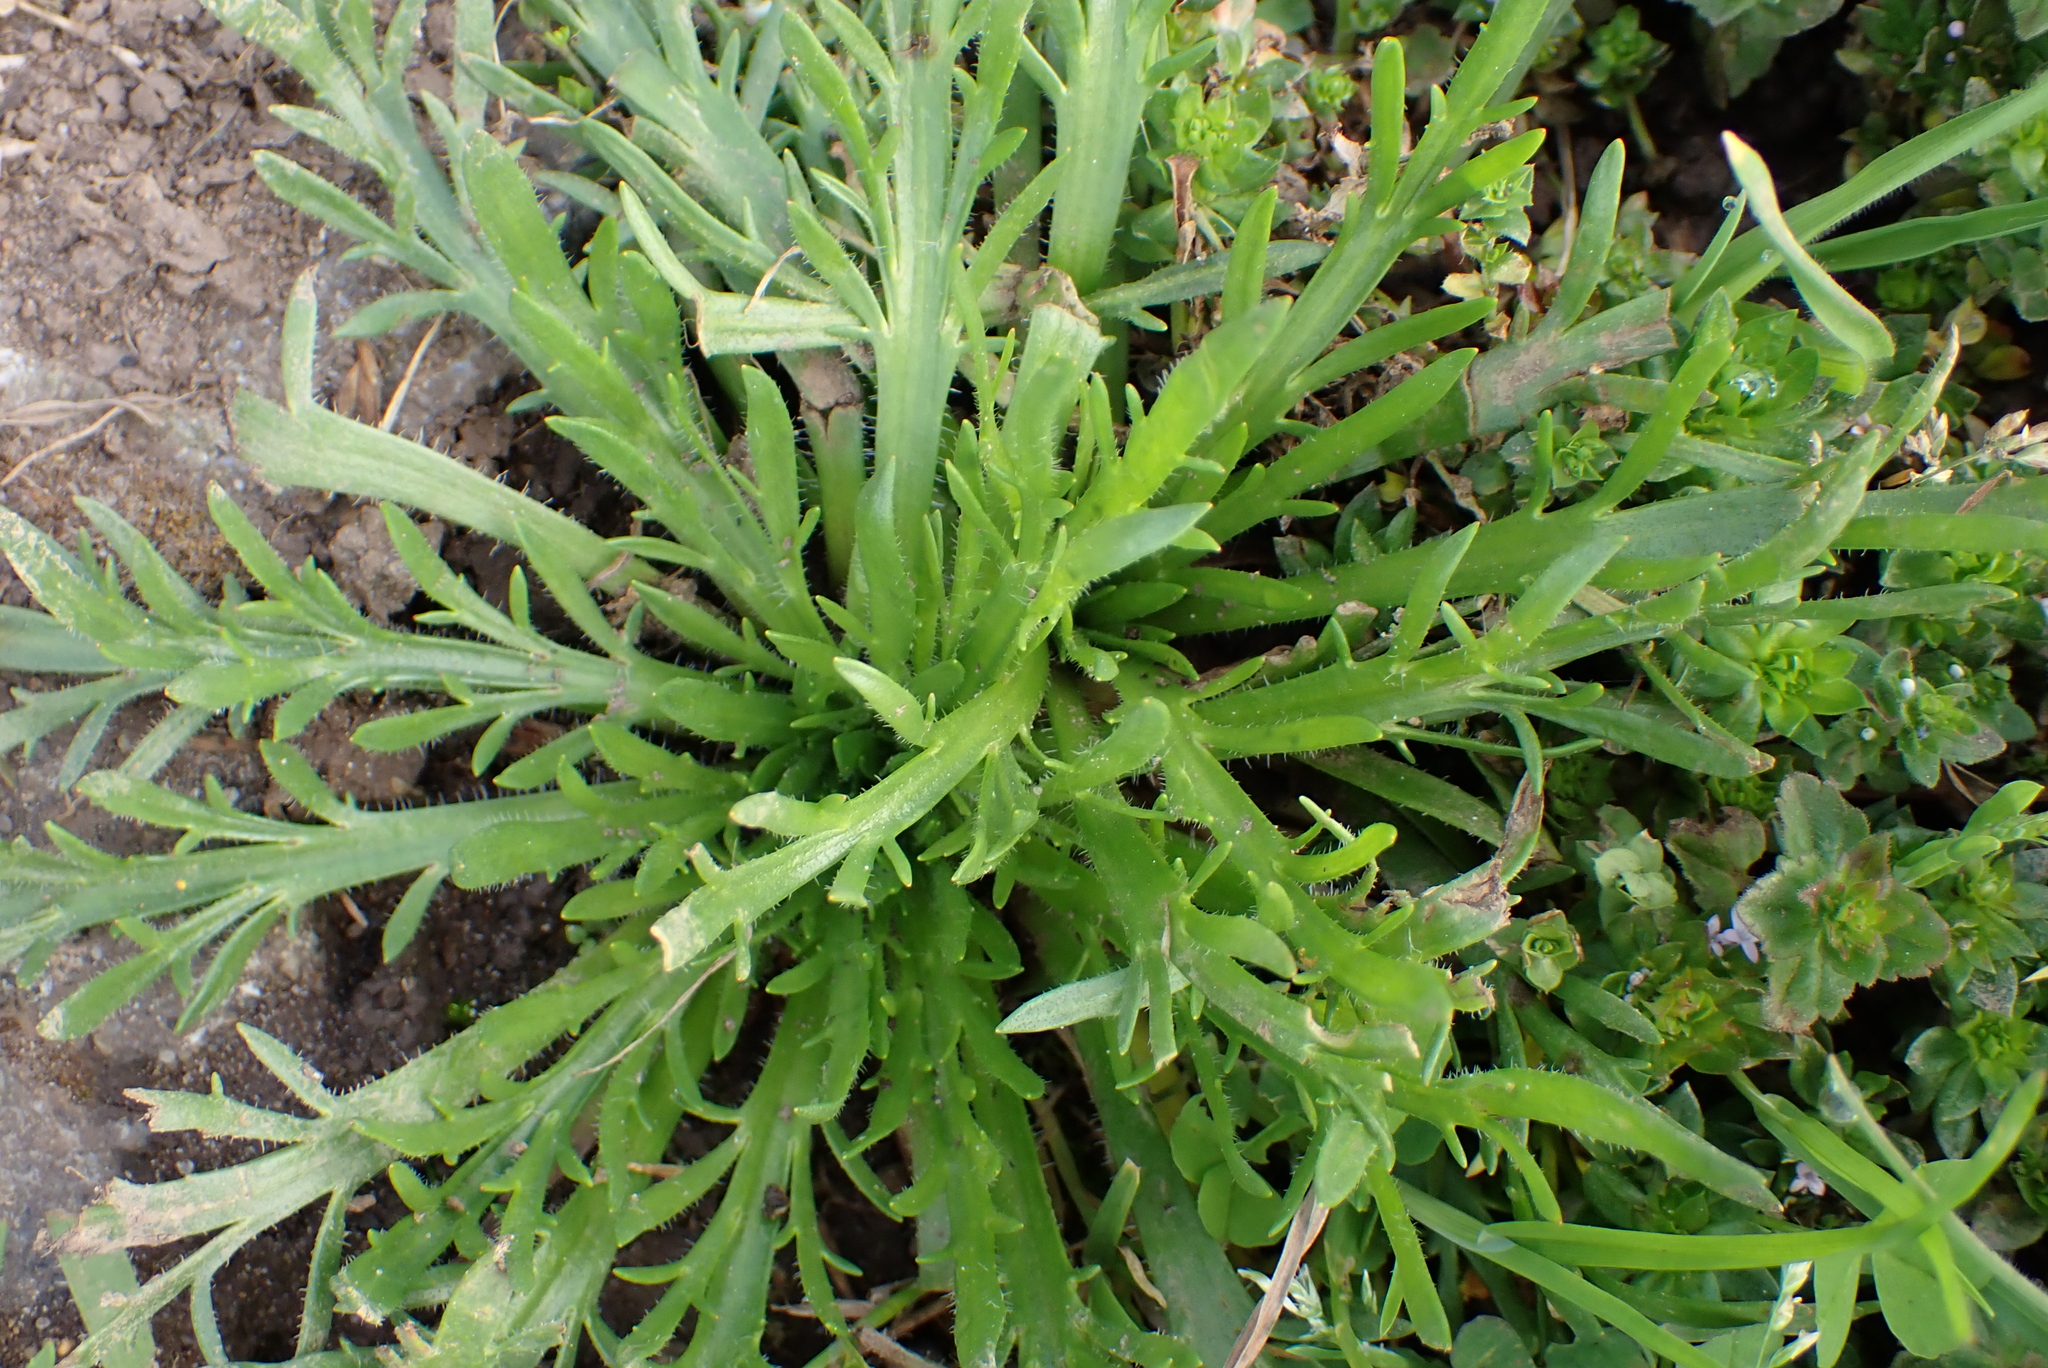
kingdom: Plantae
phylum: Tracheophyta
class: Magnoliopsida
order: Lamiales
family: Plantaginaceae
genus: Plantago
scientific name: Plantago coronopus
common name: Buck's-horn plantain
